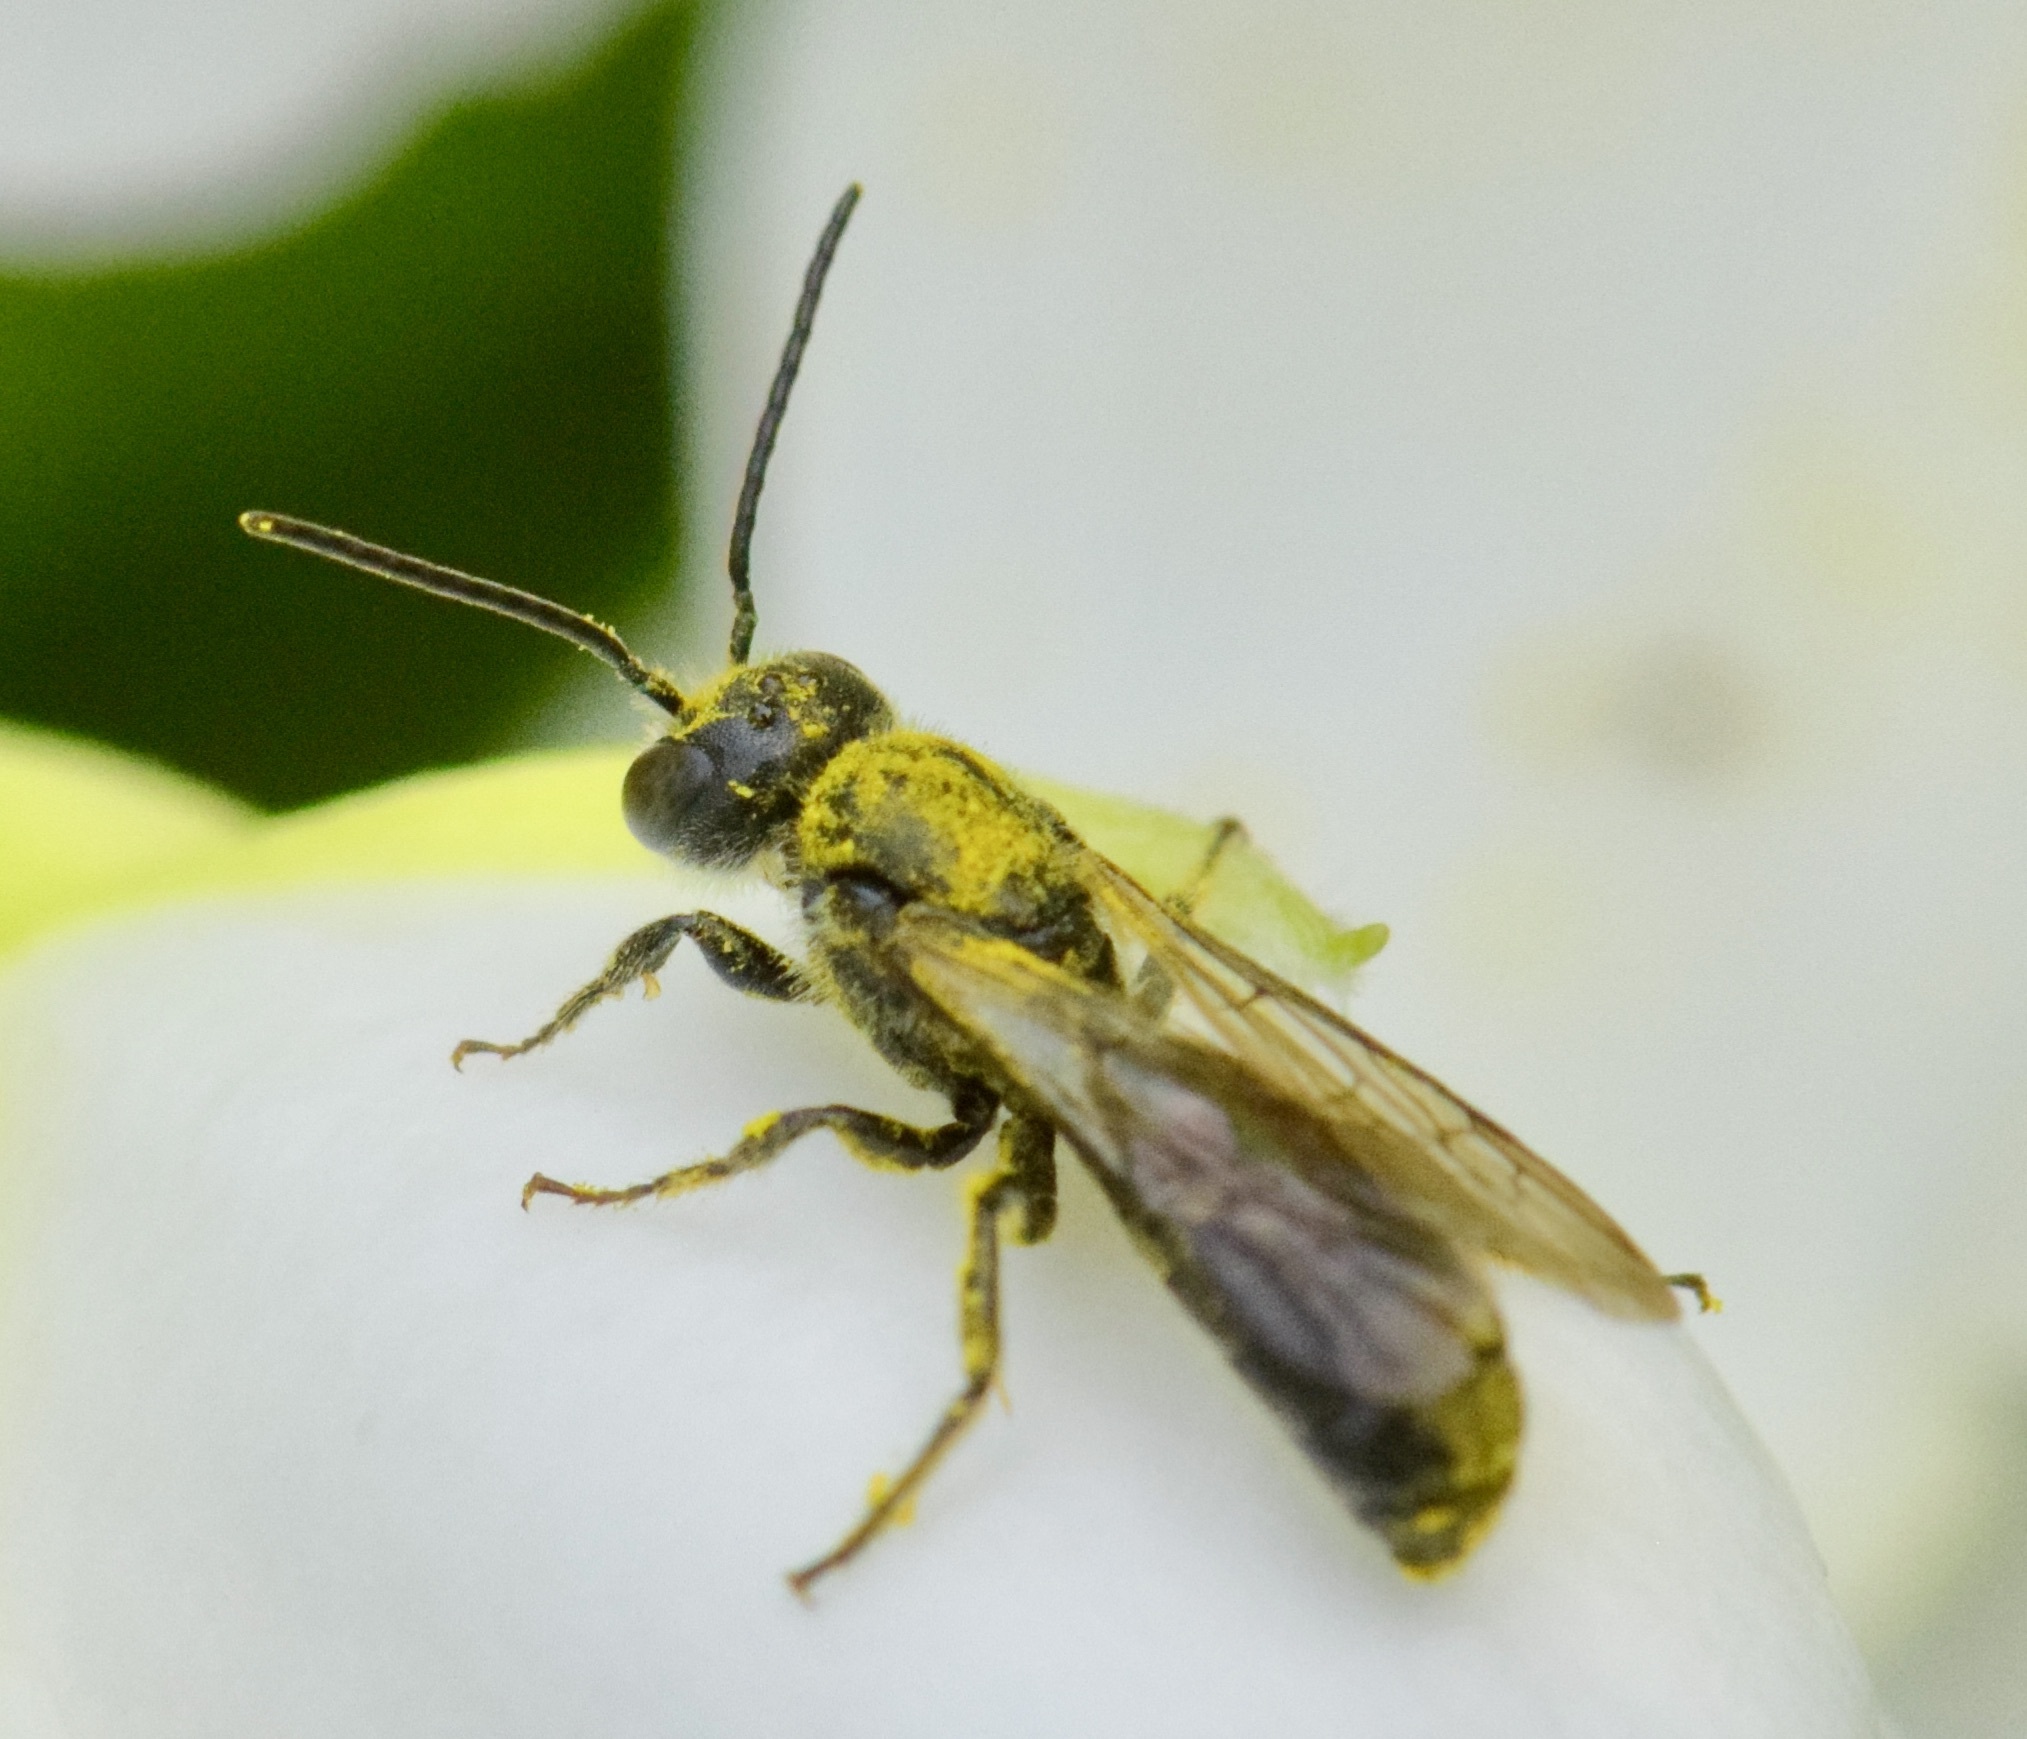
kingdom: Animalia
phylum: Arthropoda
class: Insecta
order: Hymenoptera
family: Megachilidae
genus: Chelostoma
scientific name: Chelostoma philadelphi
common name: Mock-orange scissor bee
